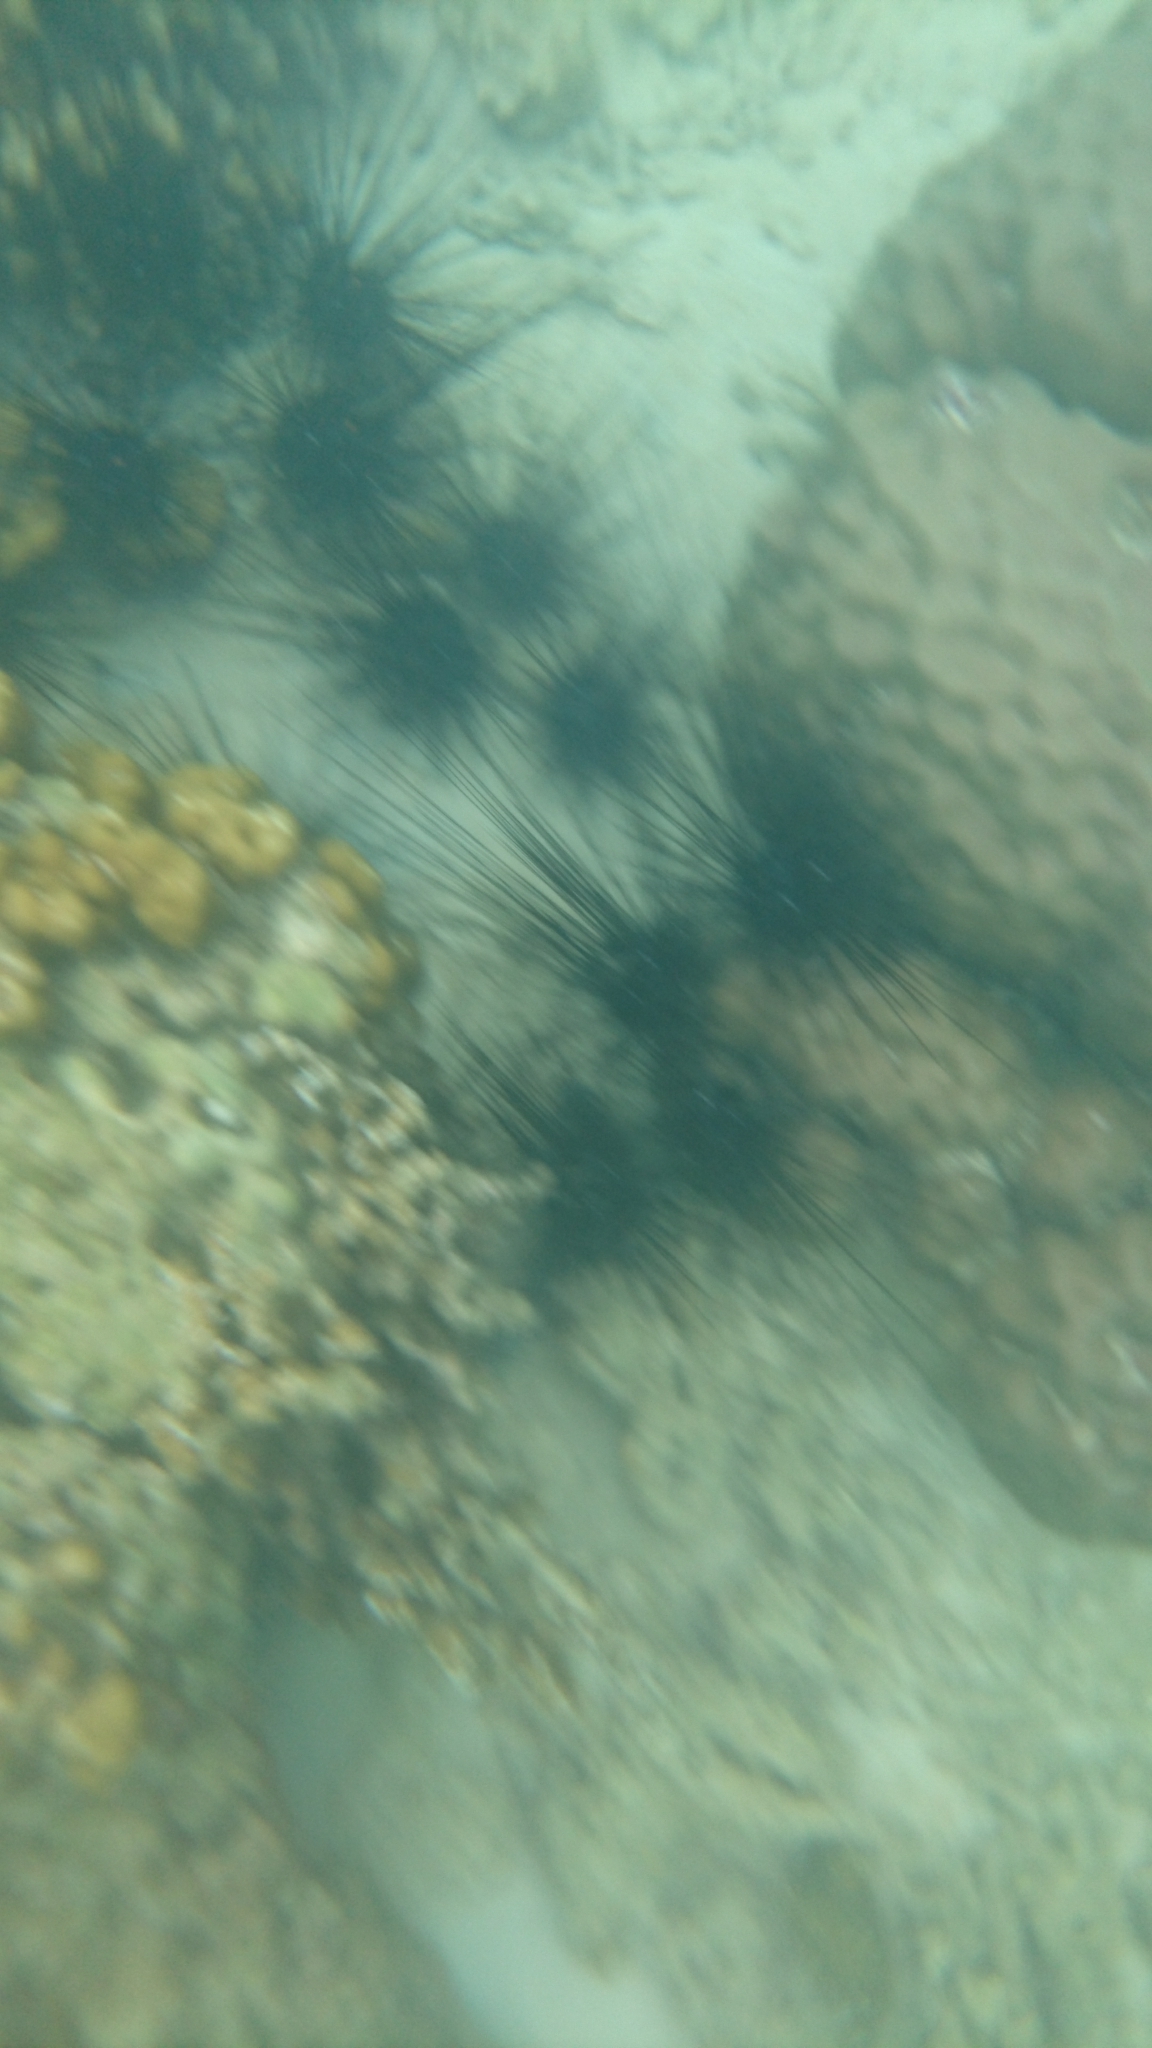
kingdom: Animalia
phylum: Echinodermata
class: Echinoidea
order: Diadematoida
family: Diadematidae
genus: Diadema
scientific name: Diadema setosum
